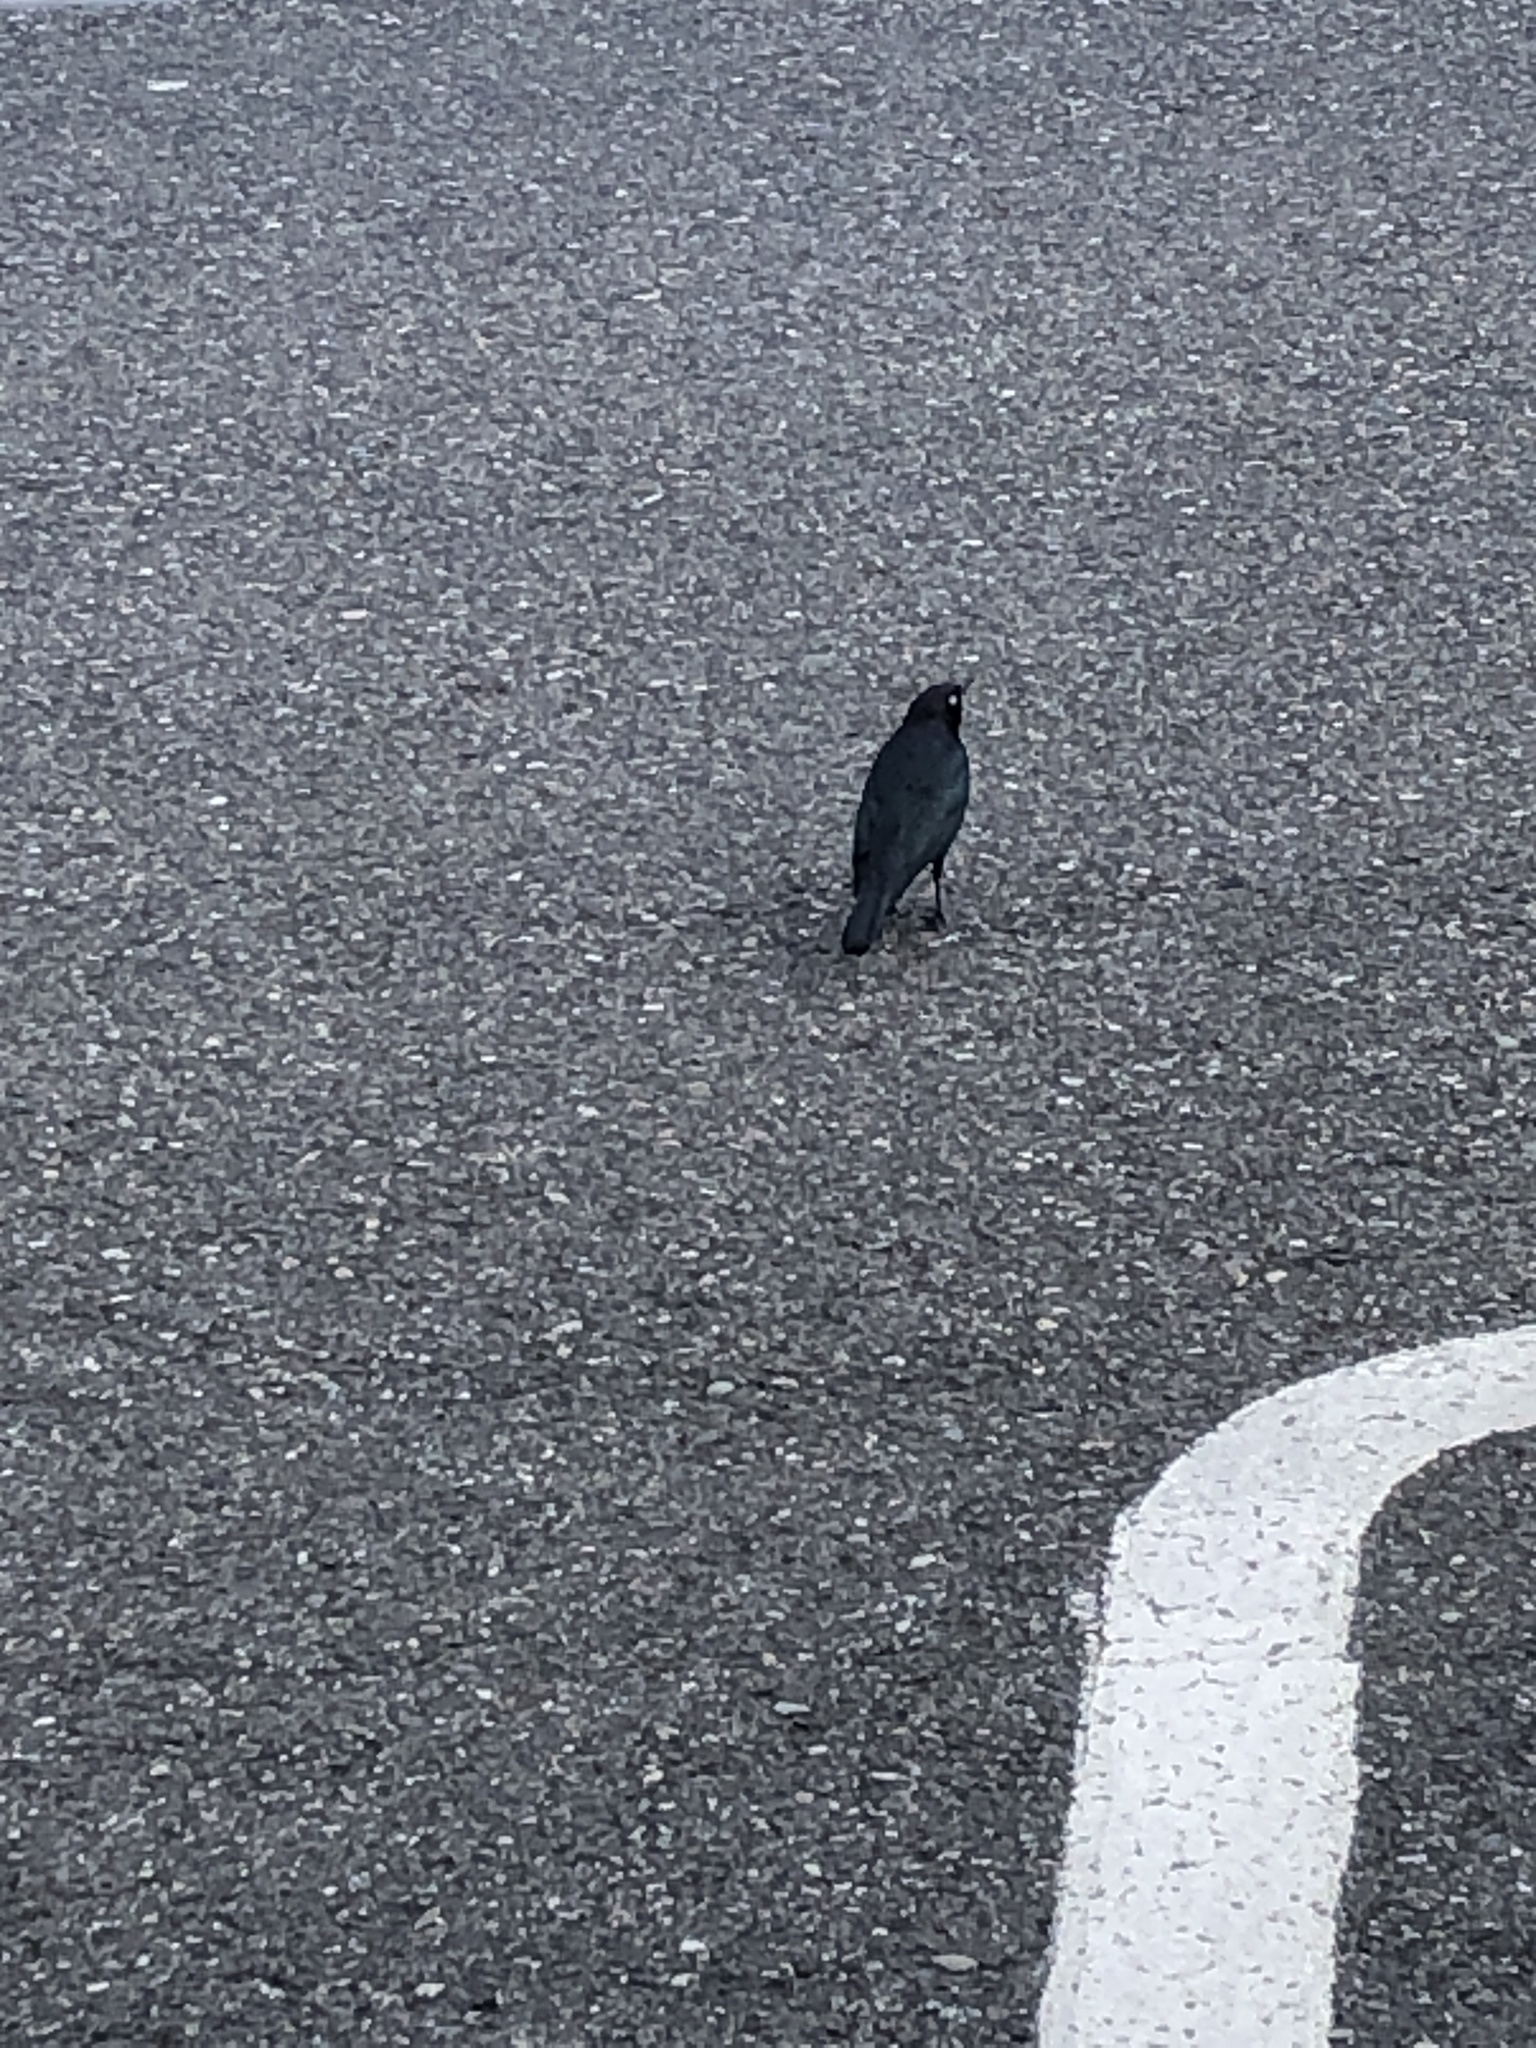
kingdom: Animalia
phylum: Chordata
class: Aves
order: Passeriformes
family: Icteridae
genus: Euphagus
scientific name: Euphagus cyanocephalus
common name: Brewer's blackbird
